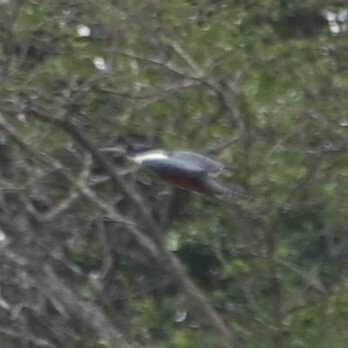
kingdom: Animalia
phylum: Chordata
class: Aves
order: Coraciiformes
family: Alcedinidae
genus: Megaceryle
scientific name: Megaceryle torquata
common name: Ringed kingfisher
